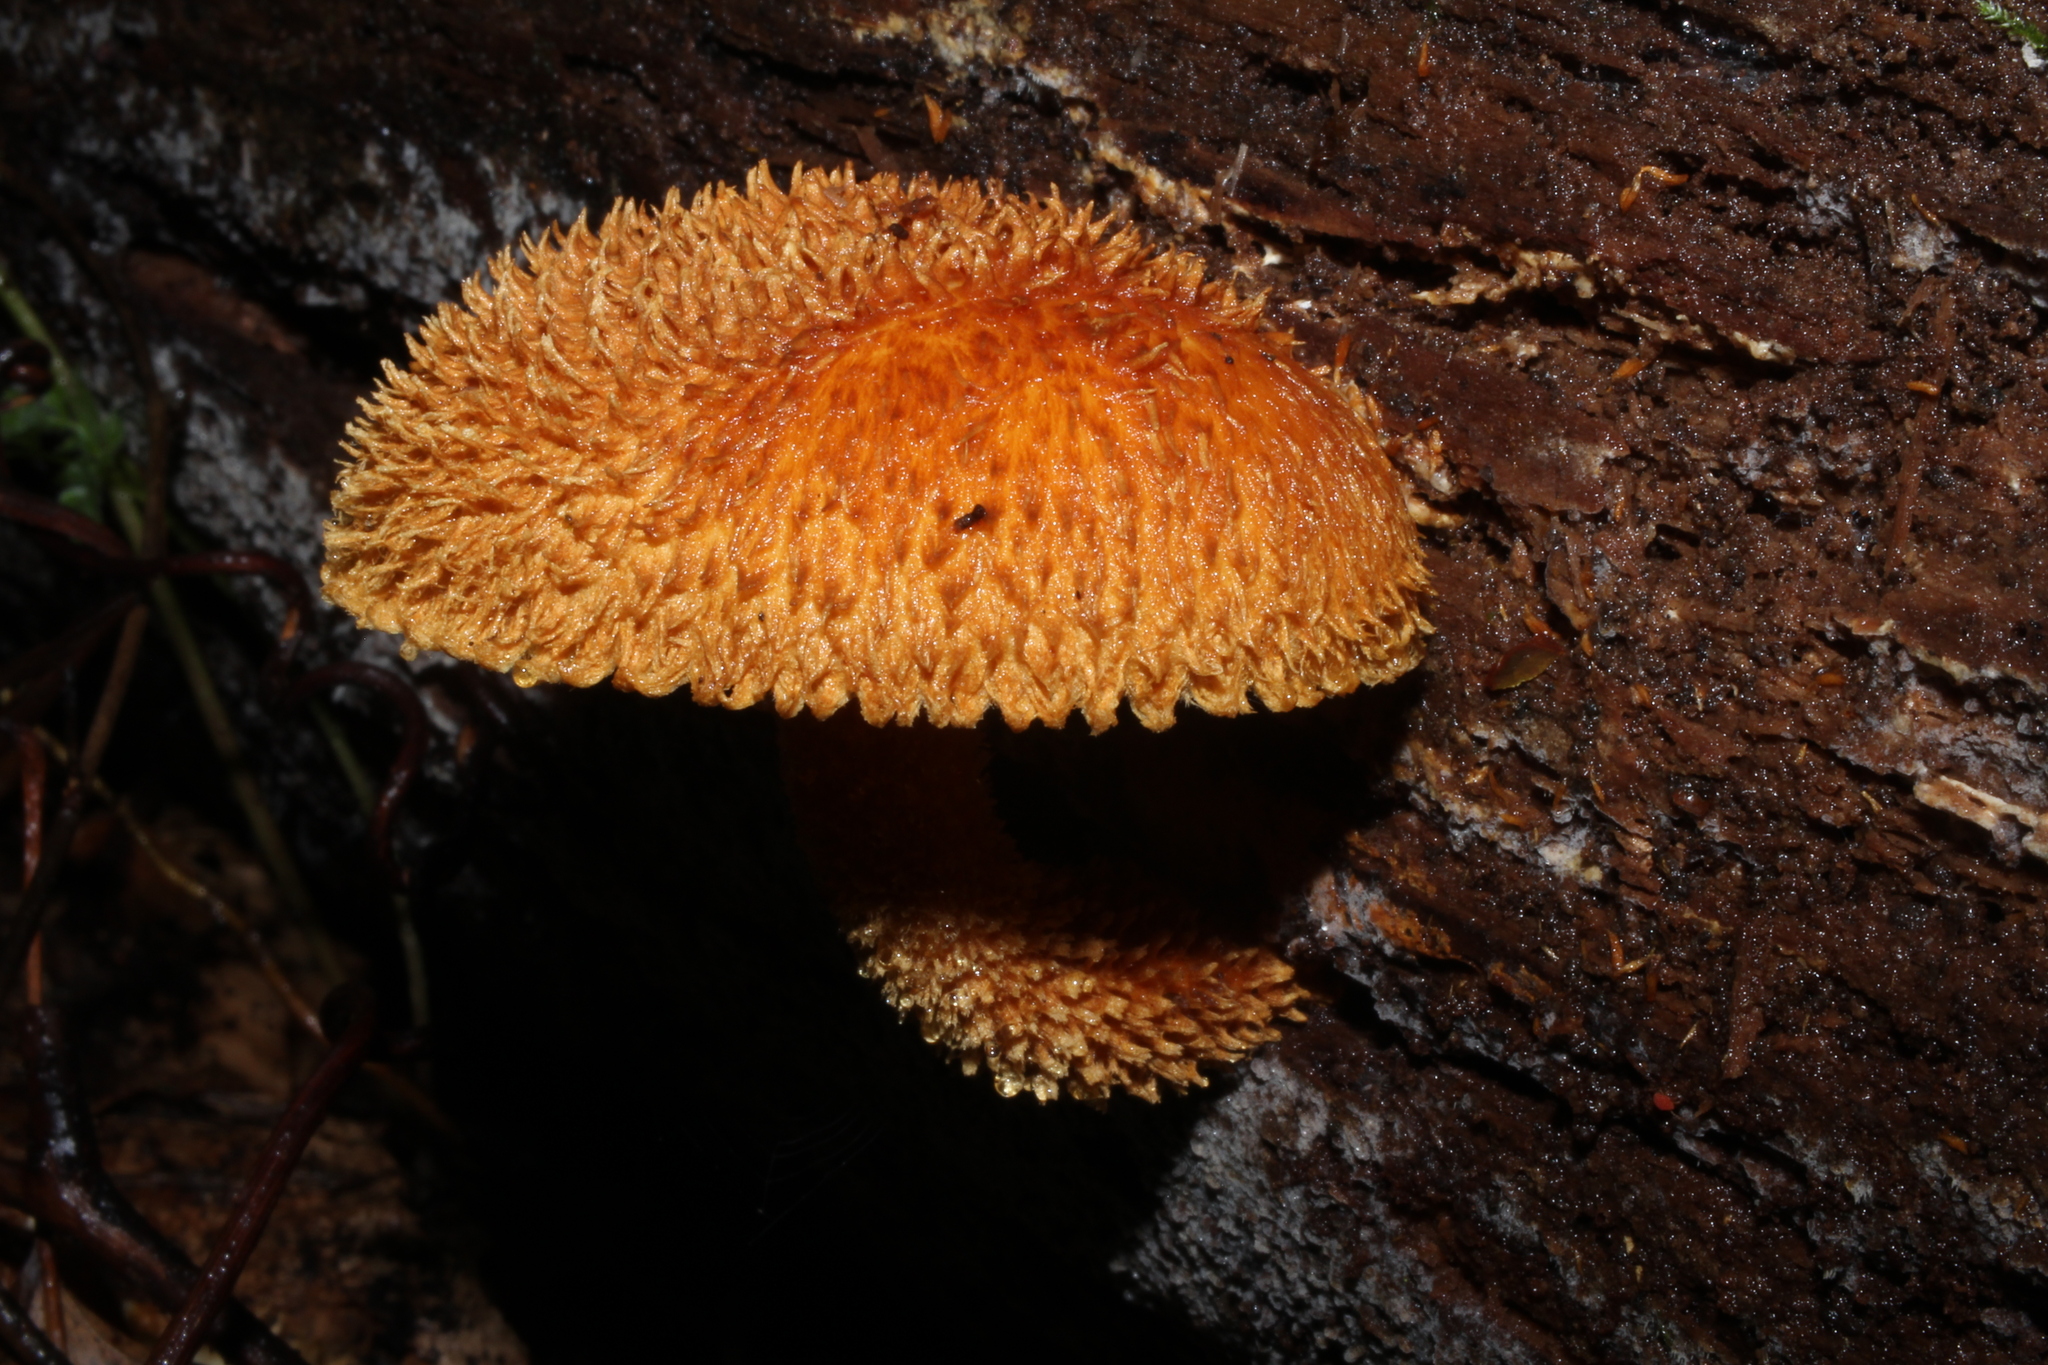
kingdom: Fungi
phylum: Basidiomycota
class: Agaricomycetes
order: Agaricales
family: Agaricaceae
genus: Leucopholiota
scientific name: Leucopholiota decorosa
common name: Decorated pholiota
